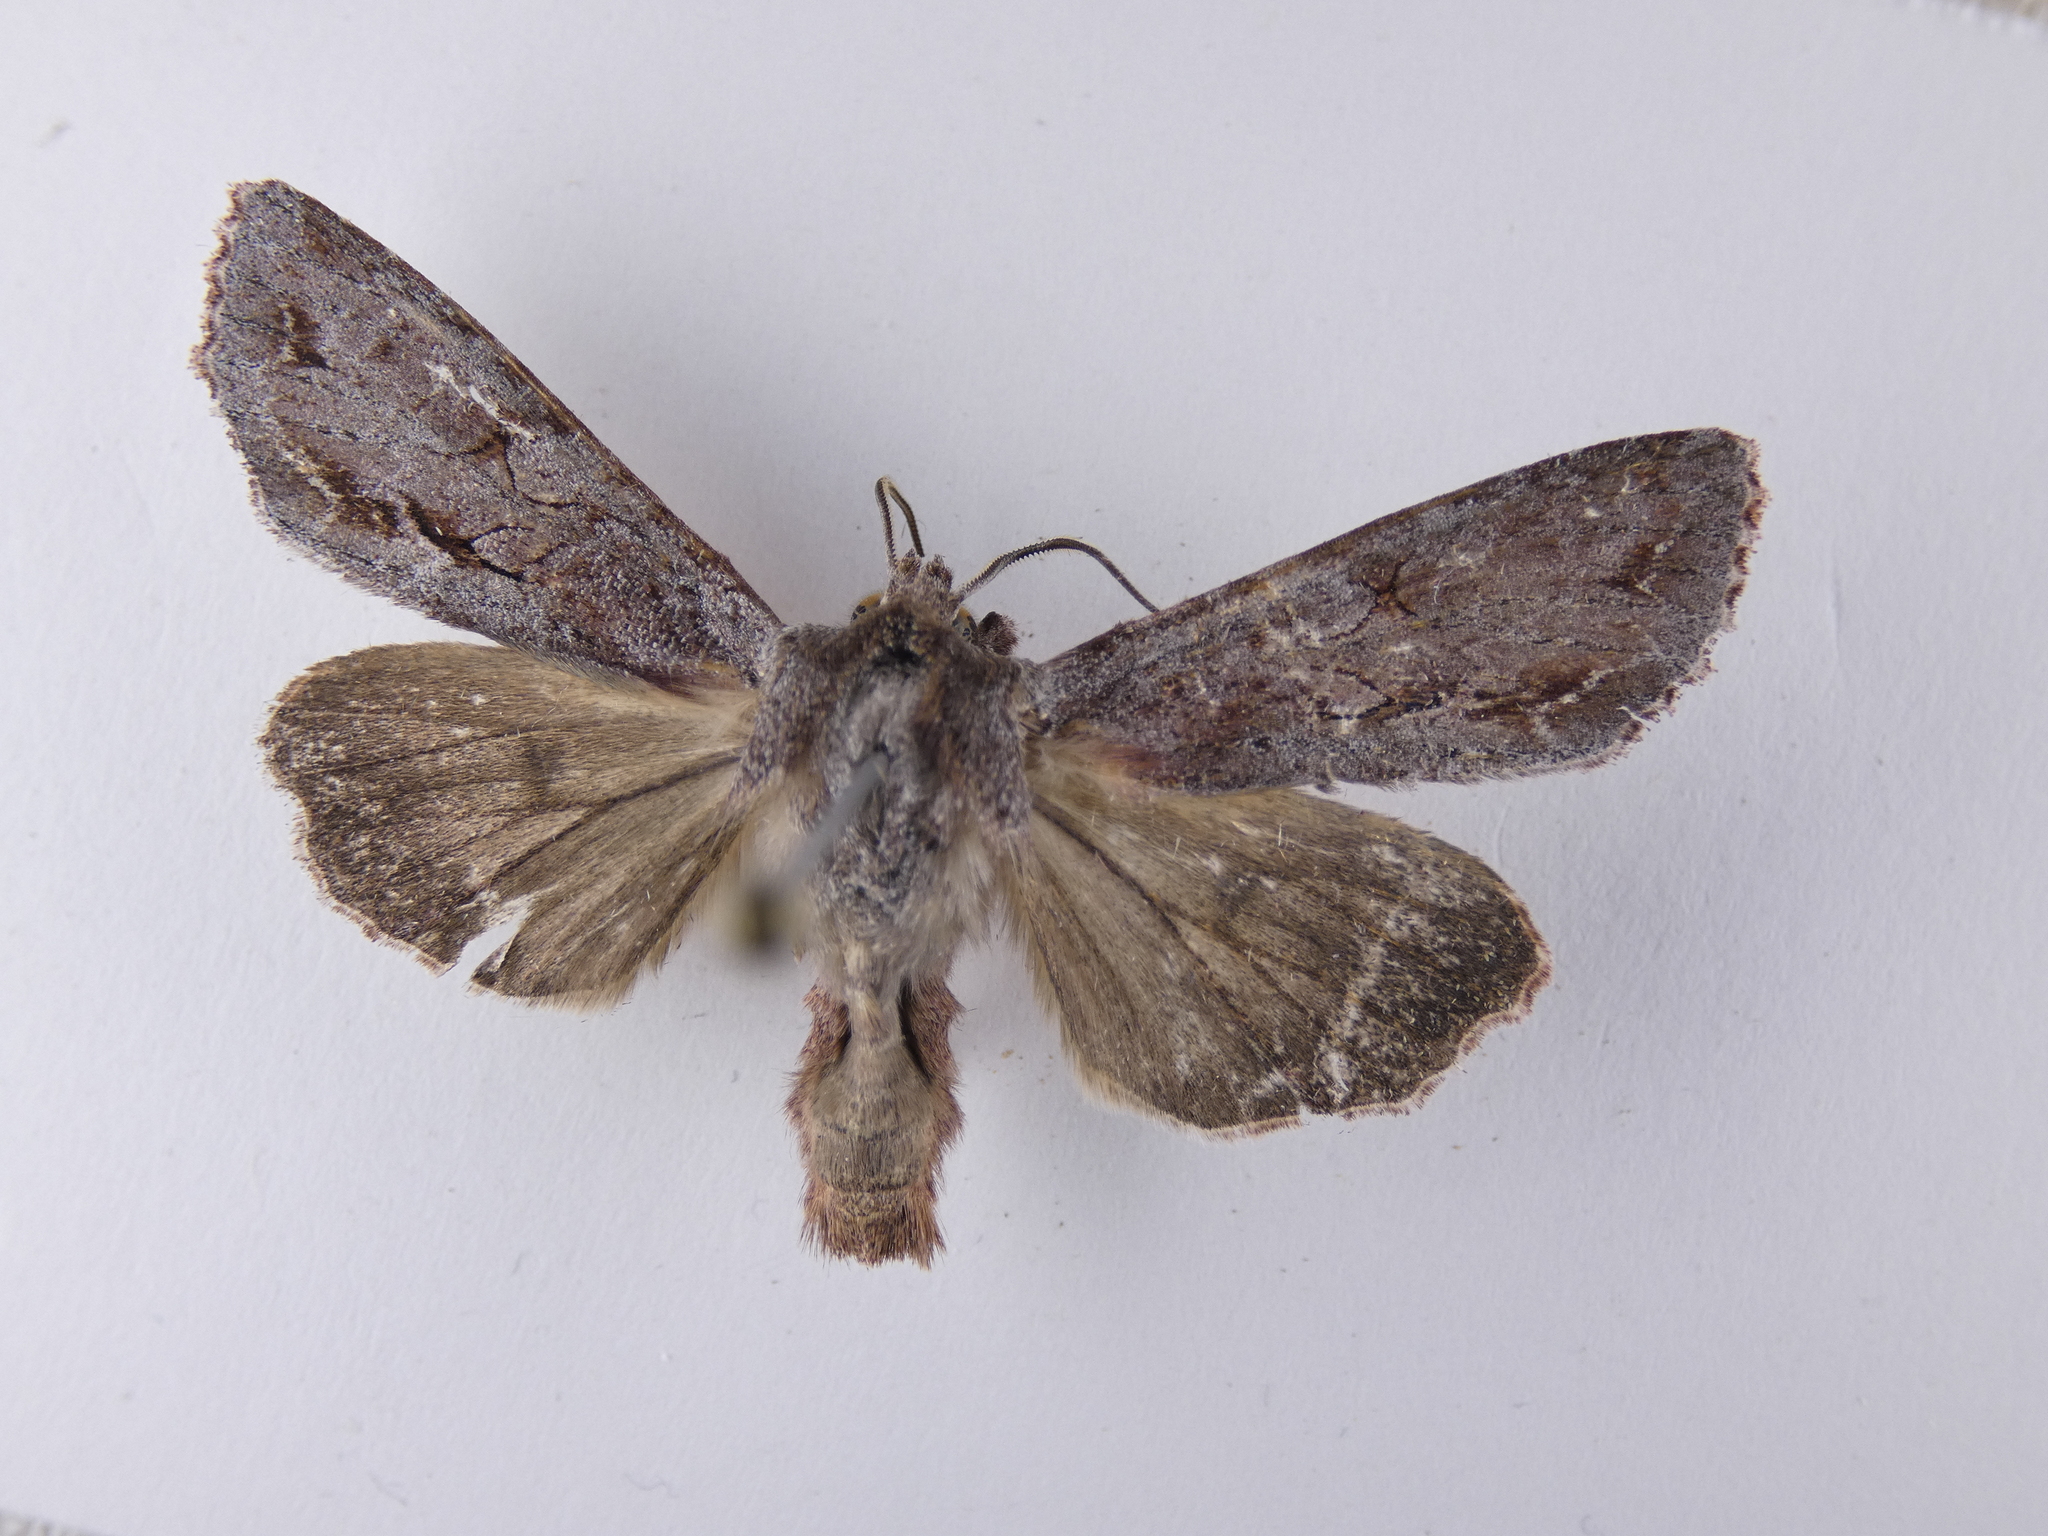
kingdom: Animalia
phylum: Arthropoda
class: Insecta
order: Lepidoptera
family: Noctuidae
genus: Ichneutica
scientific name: Ichneutica
